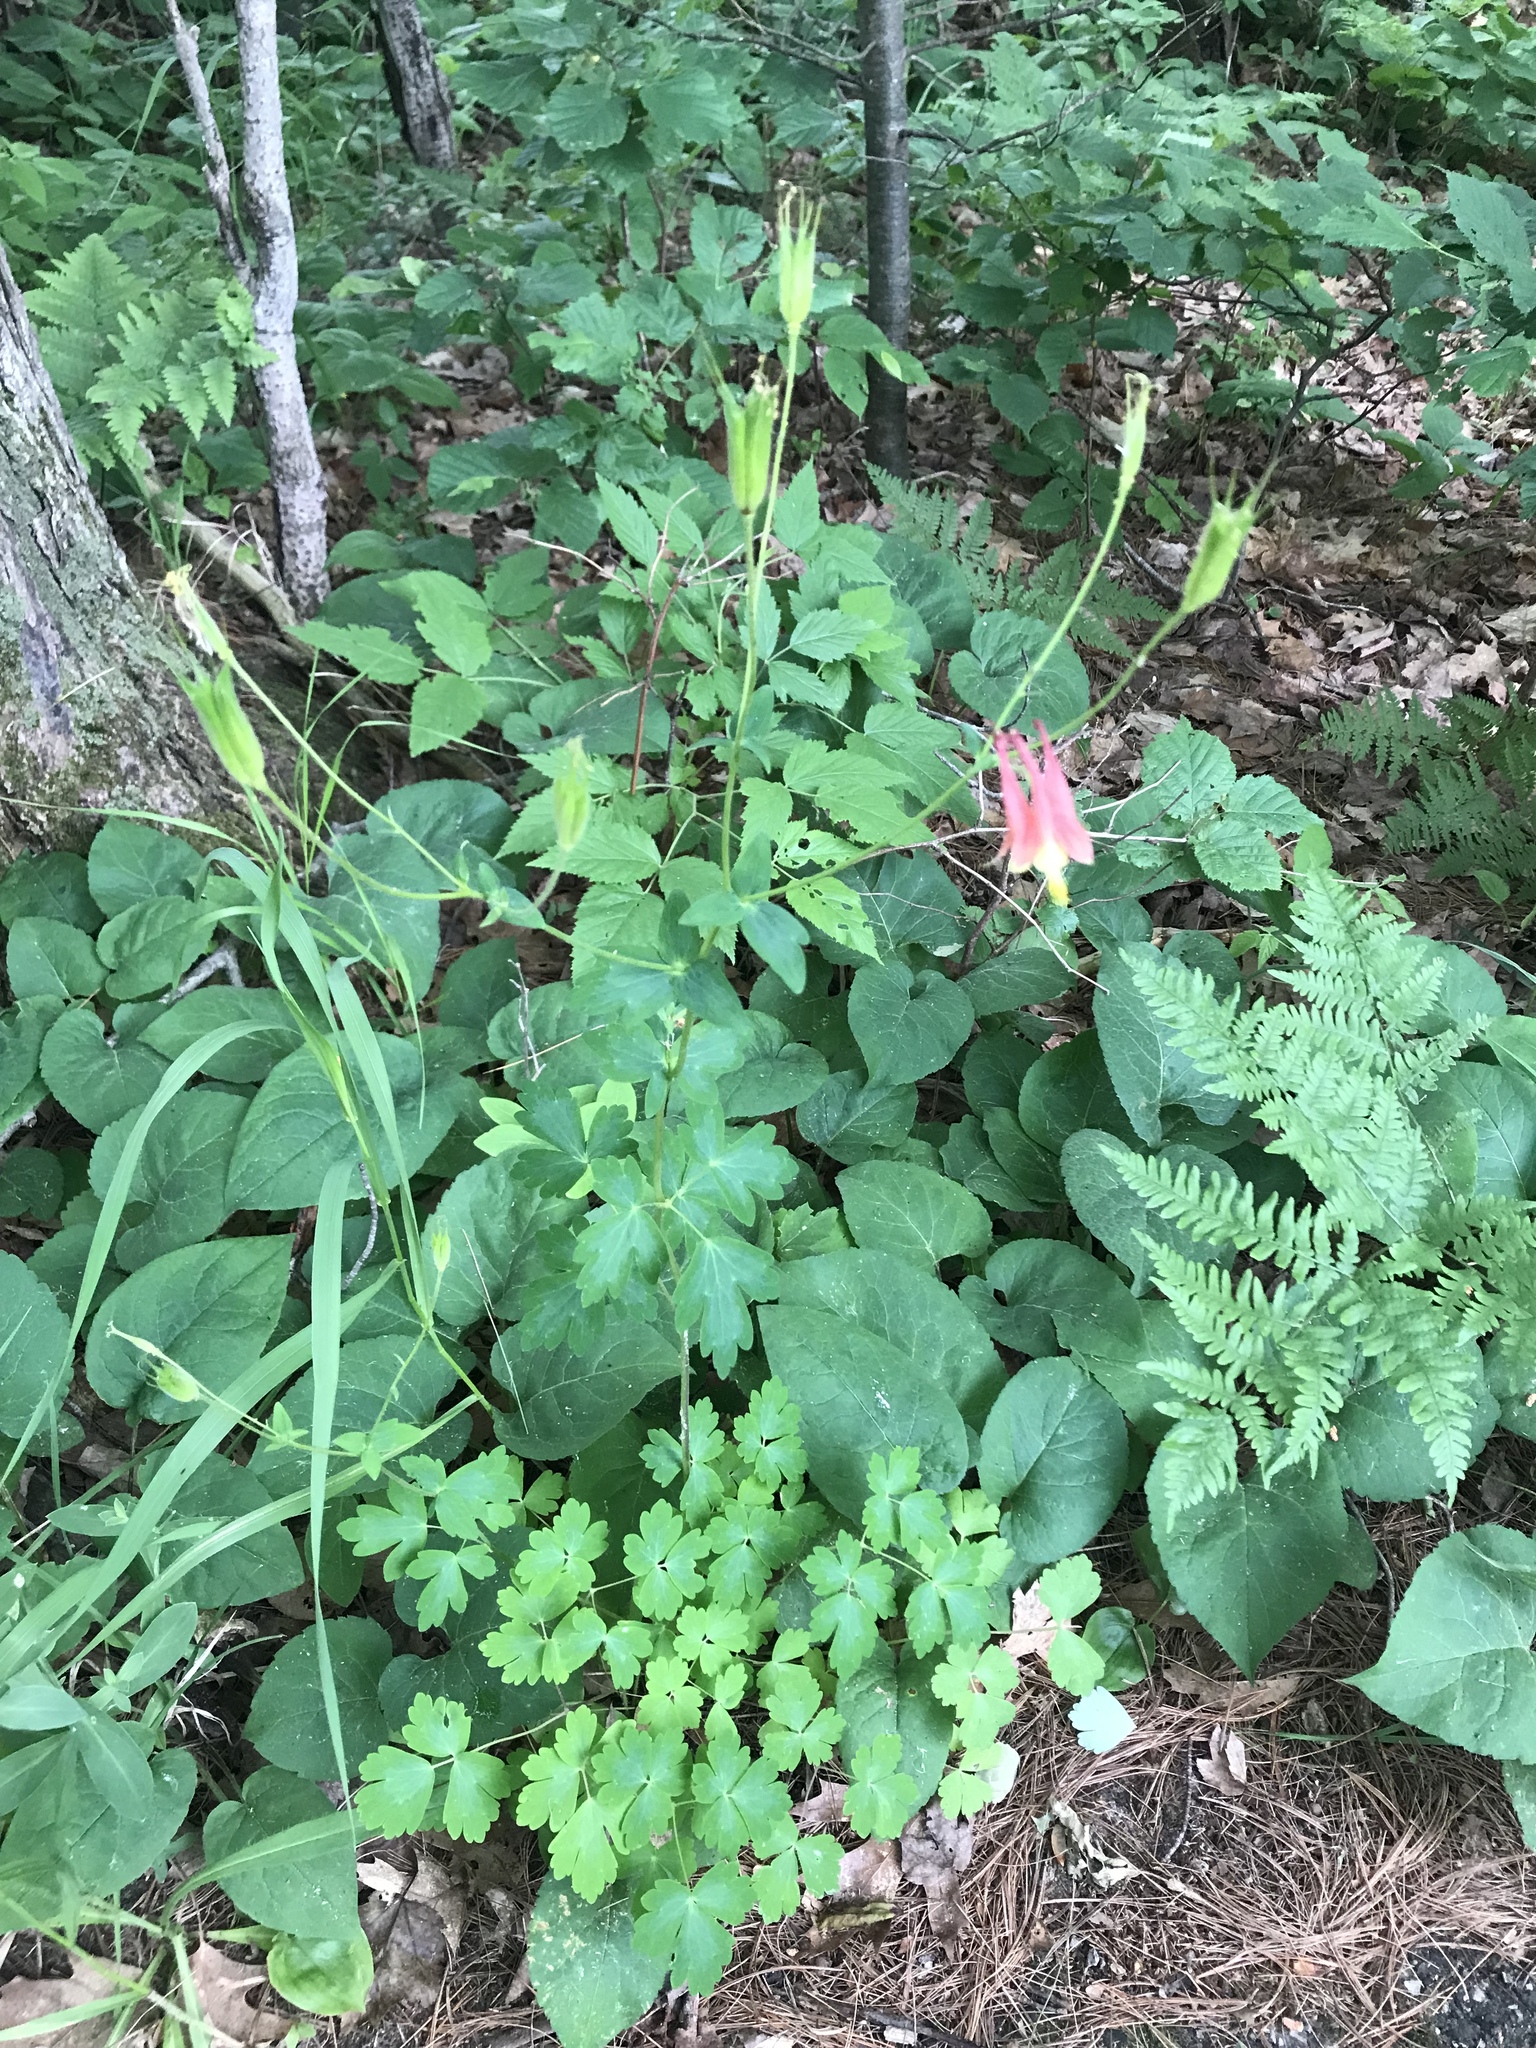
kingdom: Plantae
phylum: Tracheophyta
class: Magnoliopsida
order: Ranunculales
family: Ranunculaceae
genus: Aquilegia
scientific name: Aquilegia canadensis
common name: American columbine
